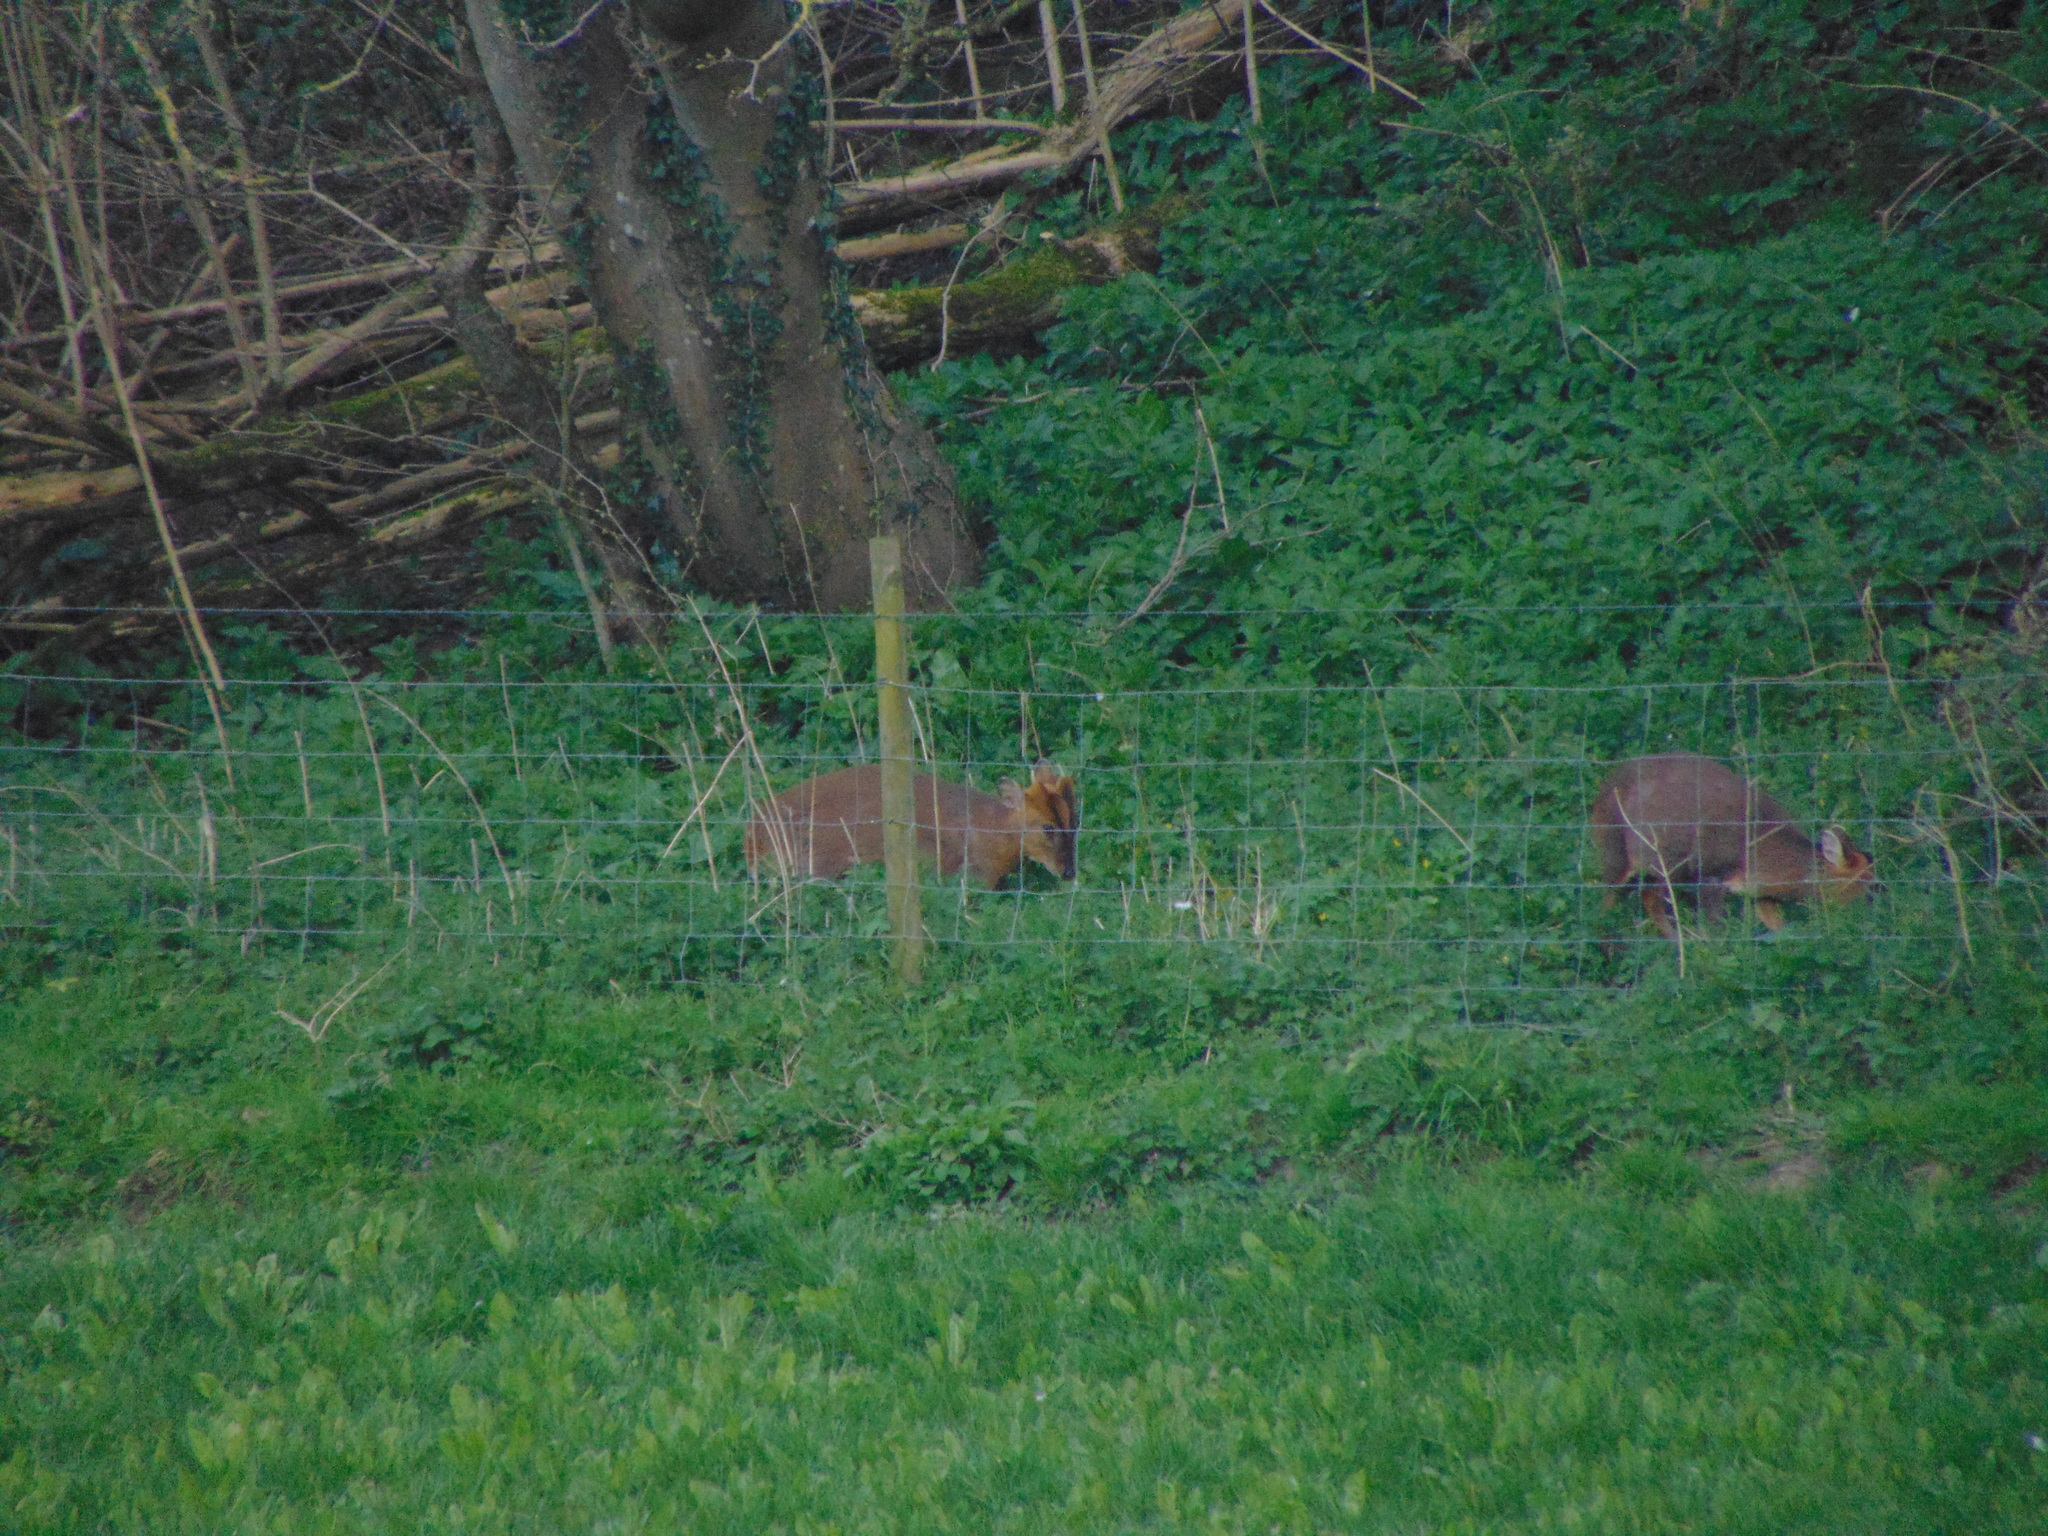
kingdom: Animalia
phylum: Chordata
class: Mammalia
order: Artiodactyla
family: Cervidae
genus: Muntiacus
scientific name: Muntiacus reevesi
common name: Reeves' muntjac
